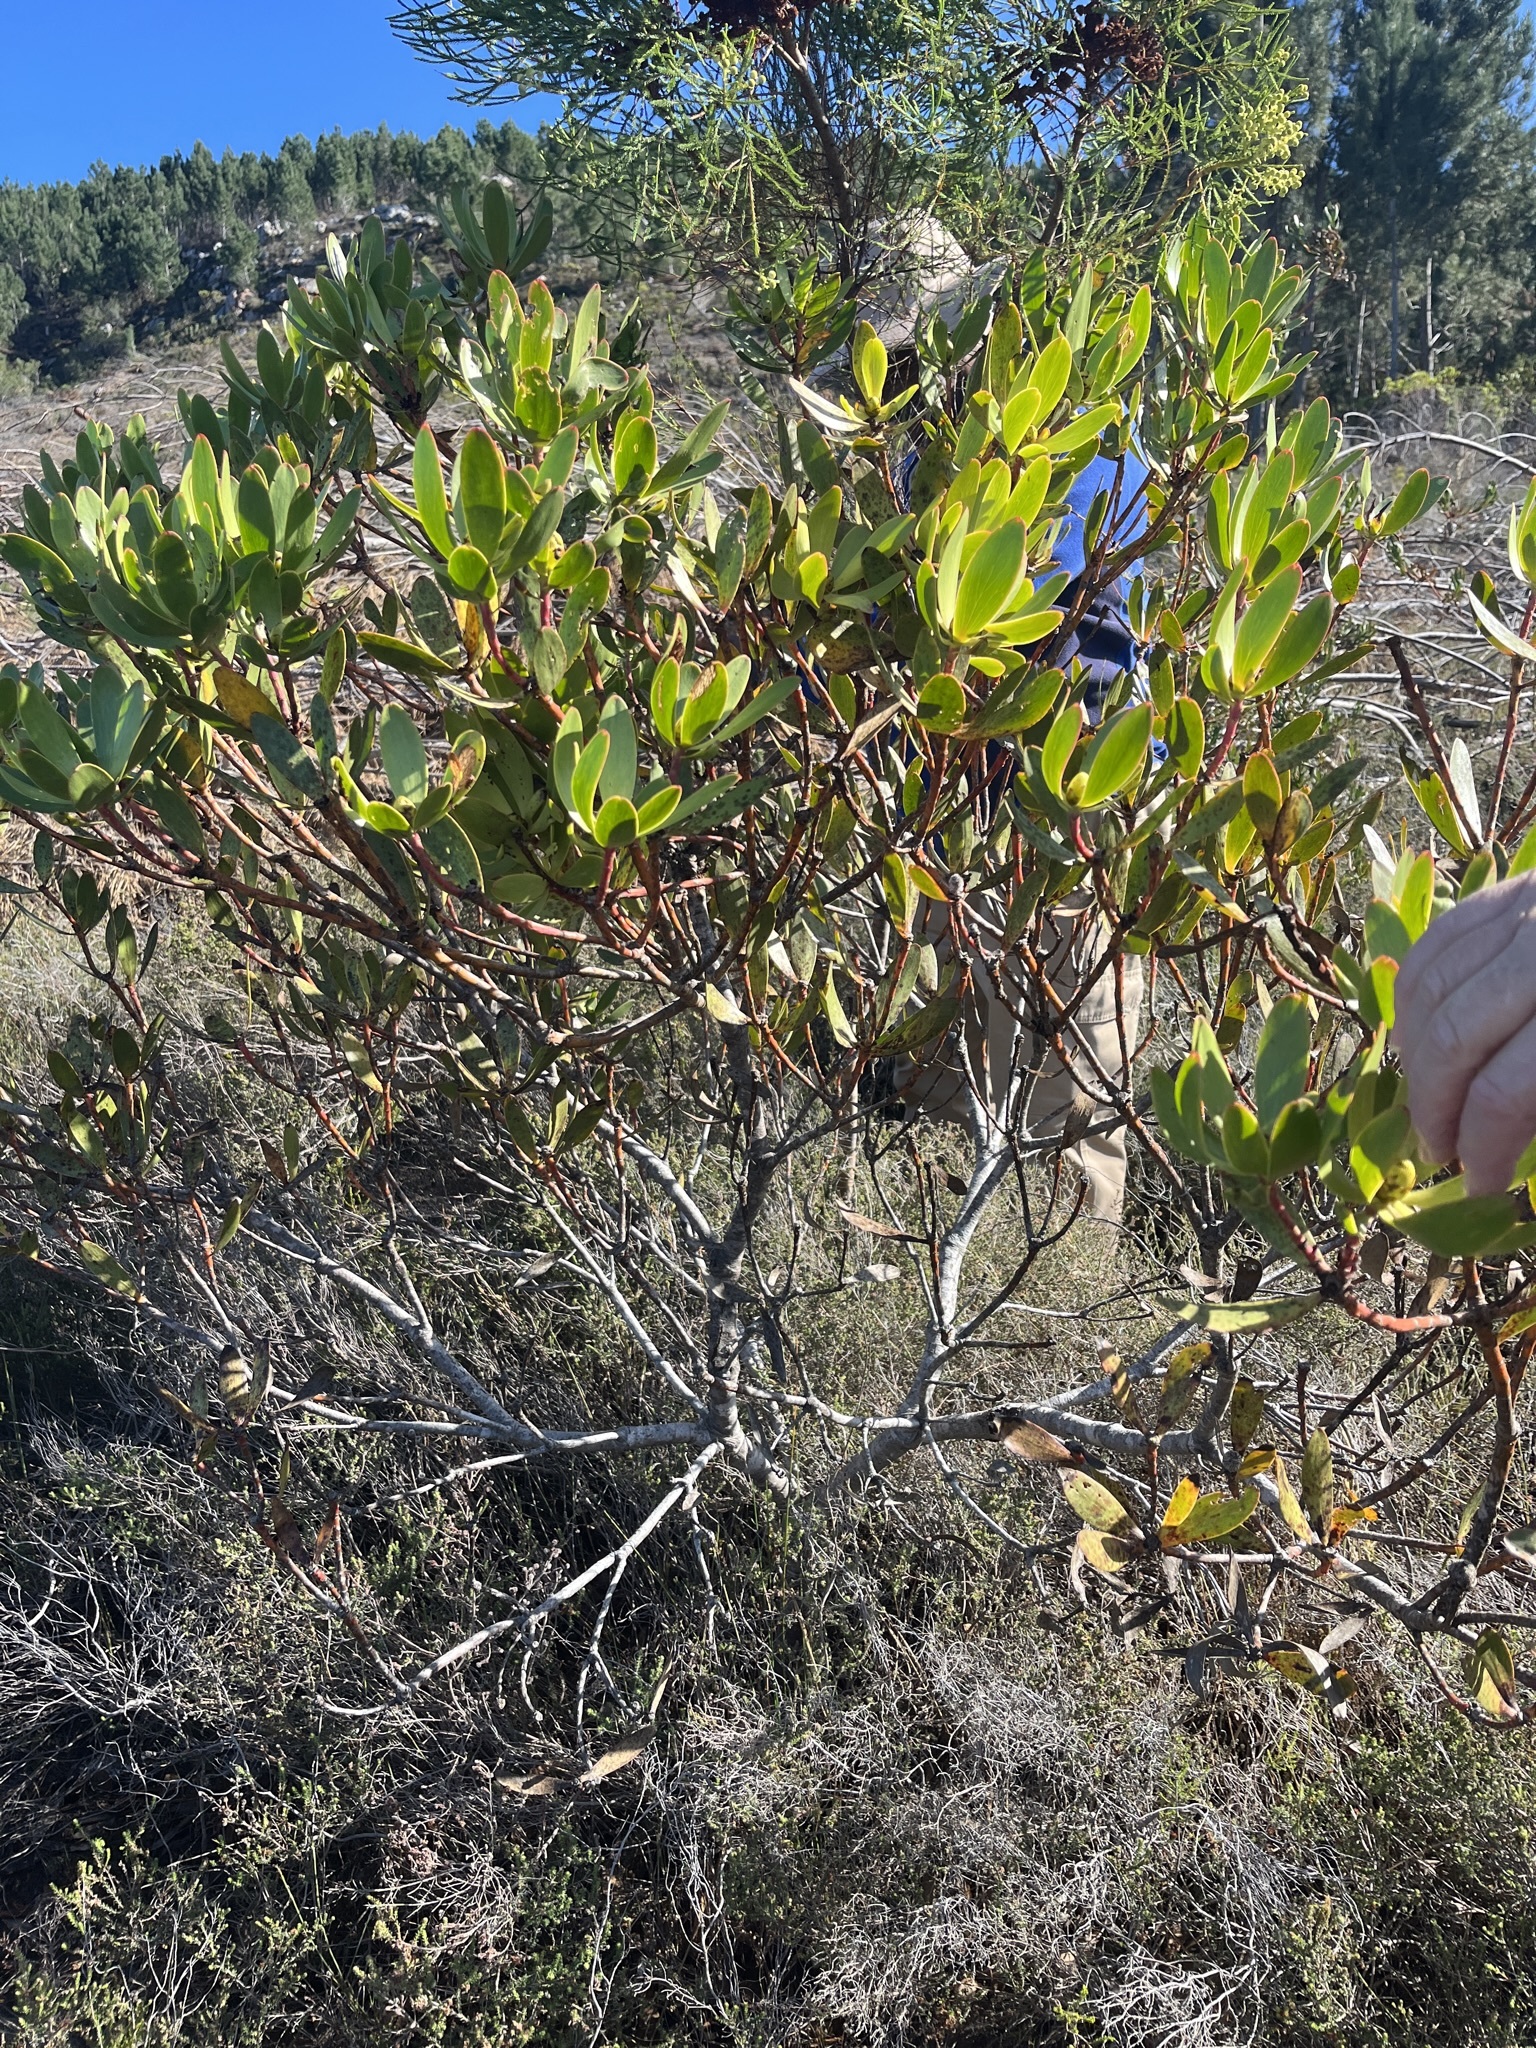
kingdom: Plantae
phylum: Tracheophyta
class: Magnoliopsida
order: Proteales
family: Proteaceae
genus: Leucadendron
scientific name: Leucadendron gandogeri
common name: Broad-leaf conebush
